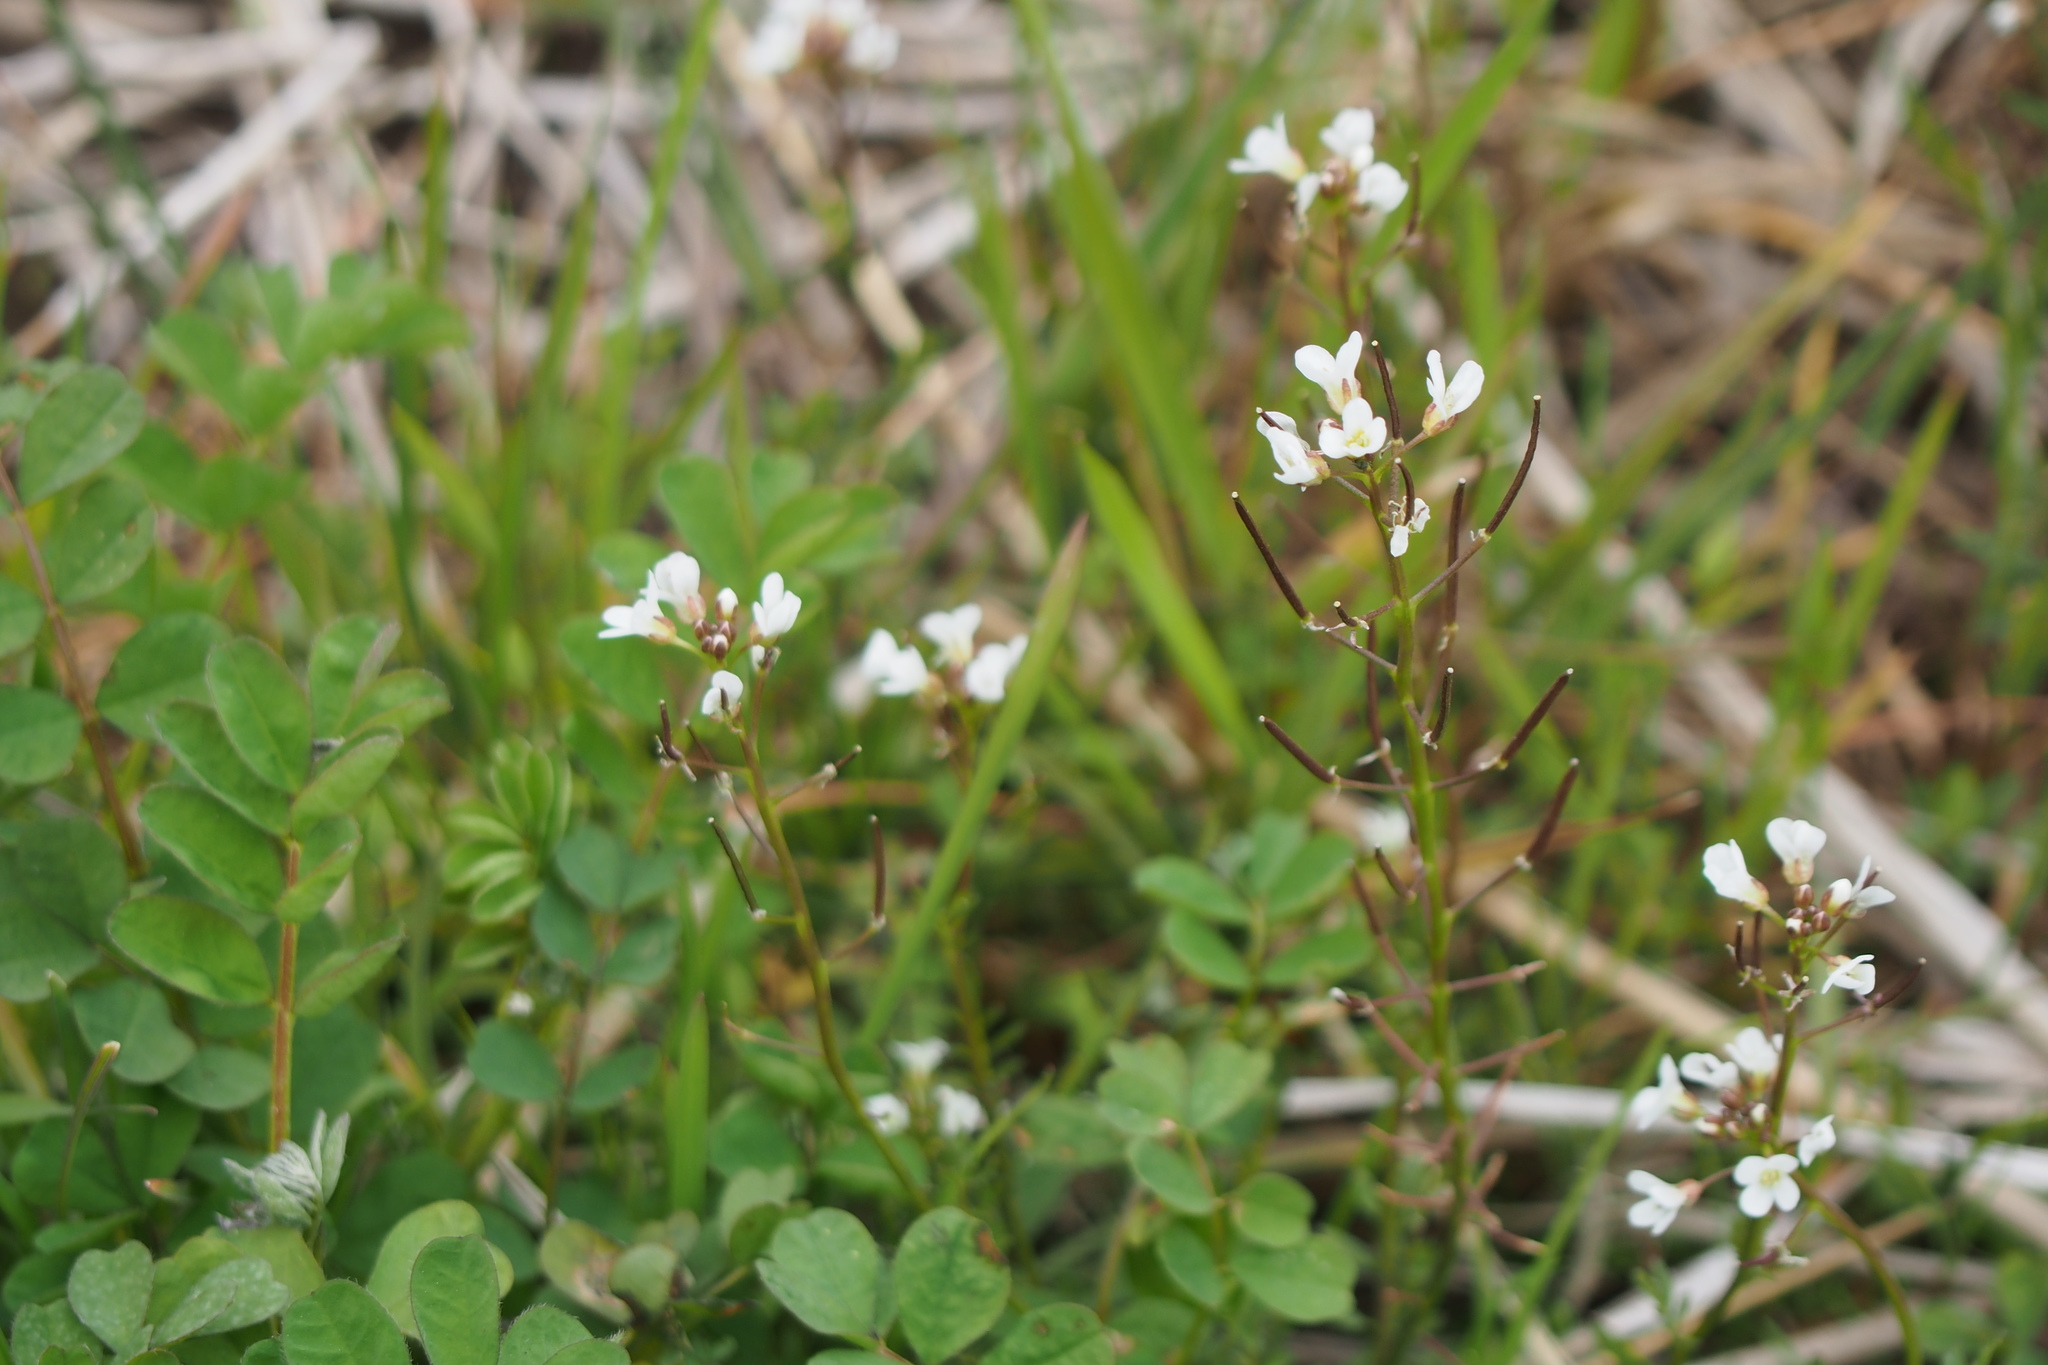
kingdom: Plantae
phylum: Tracheophyta
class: Magnoliopsida
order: Brassicales
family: Brassicaceae
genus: Cardamine
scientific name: Cardamine scutata
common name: Japanese bittercress
